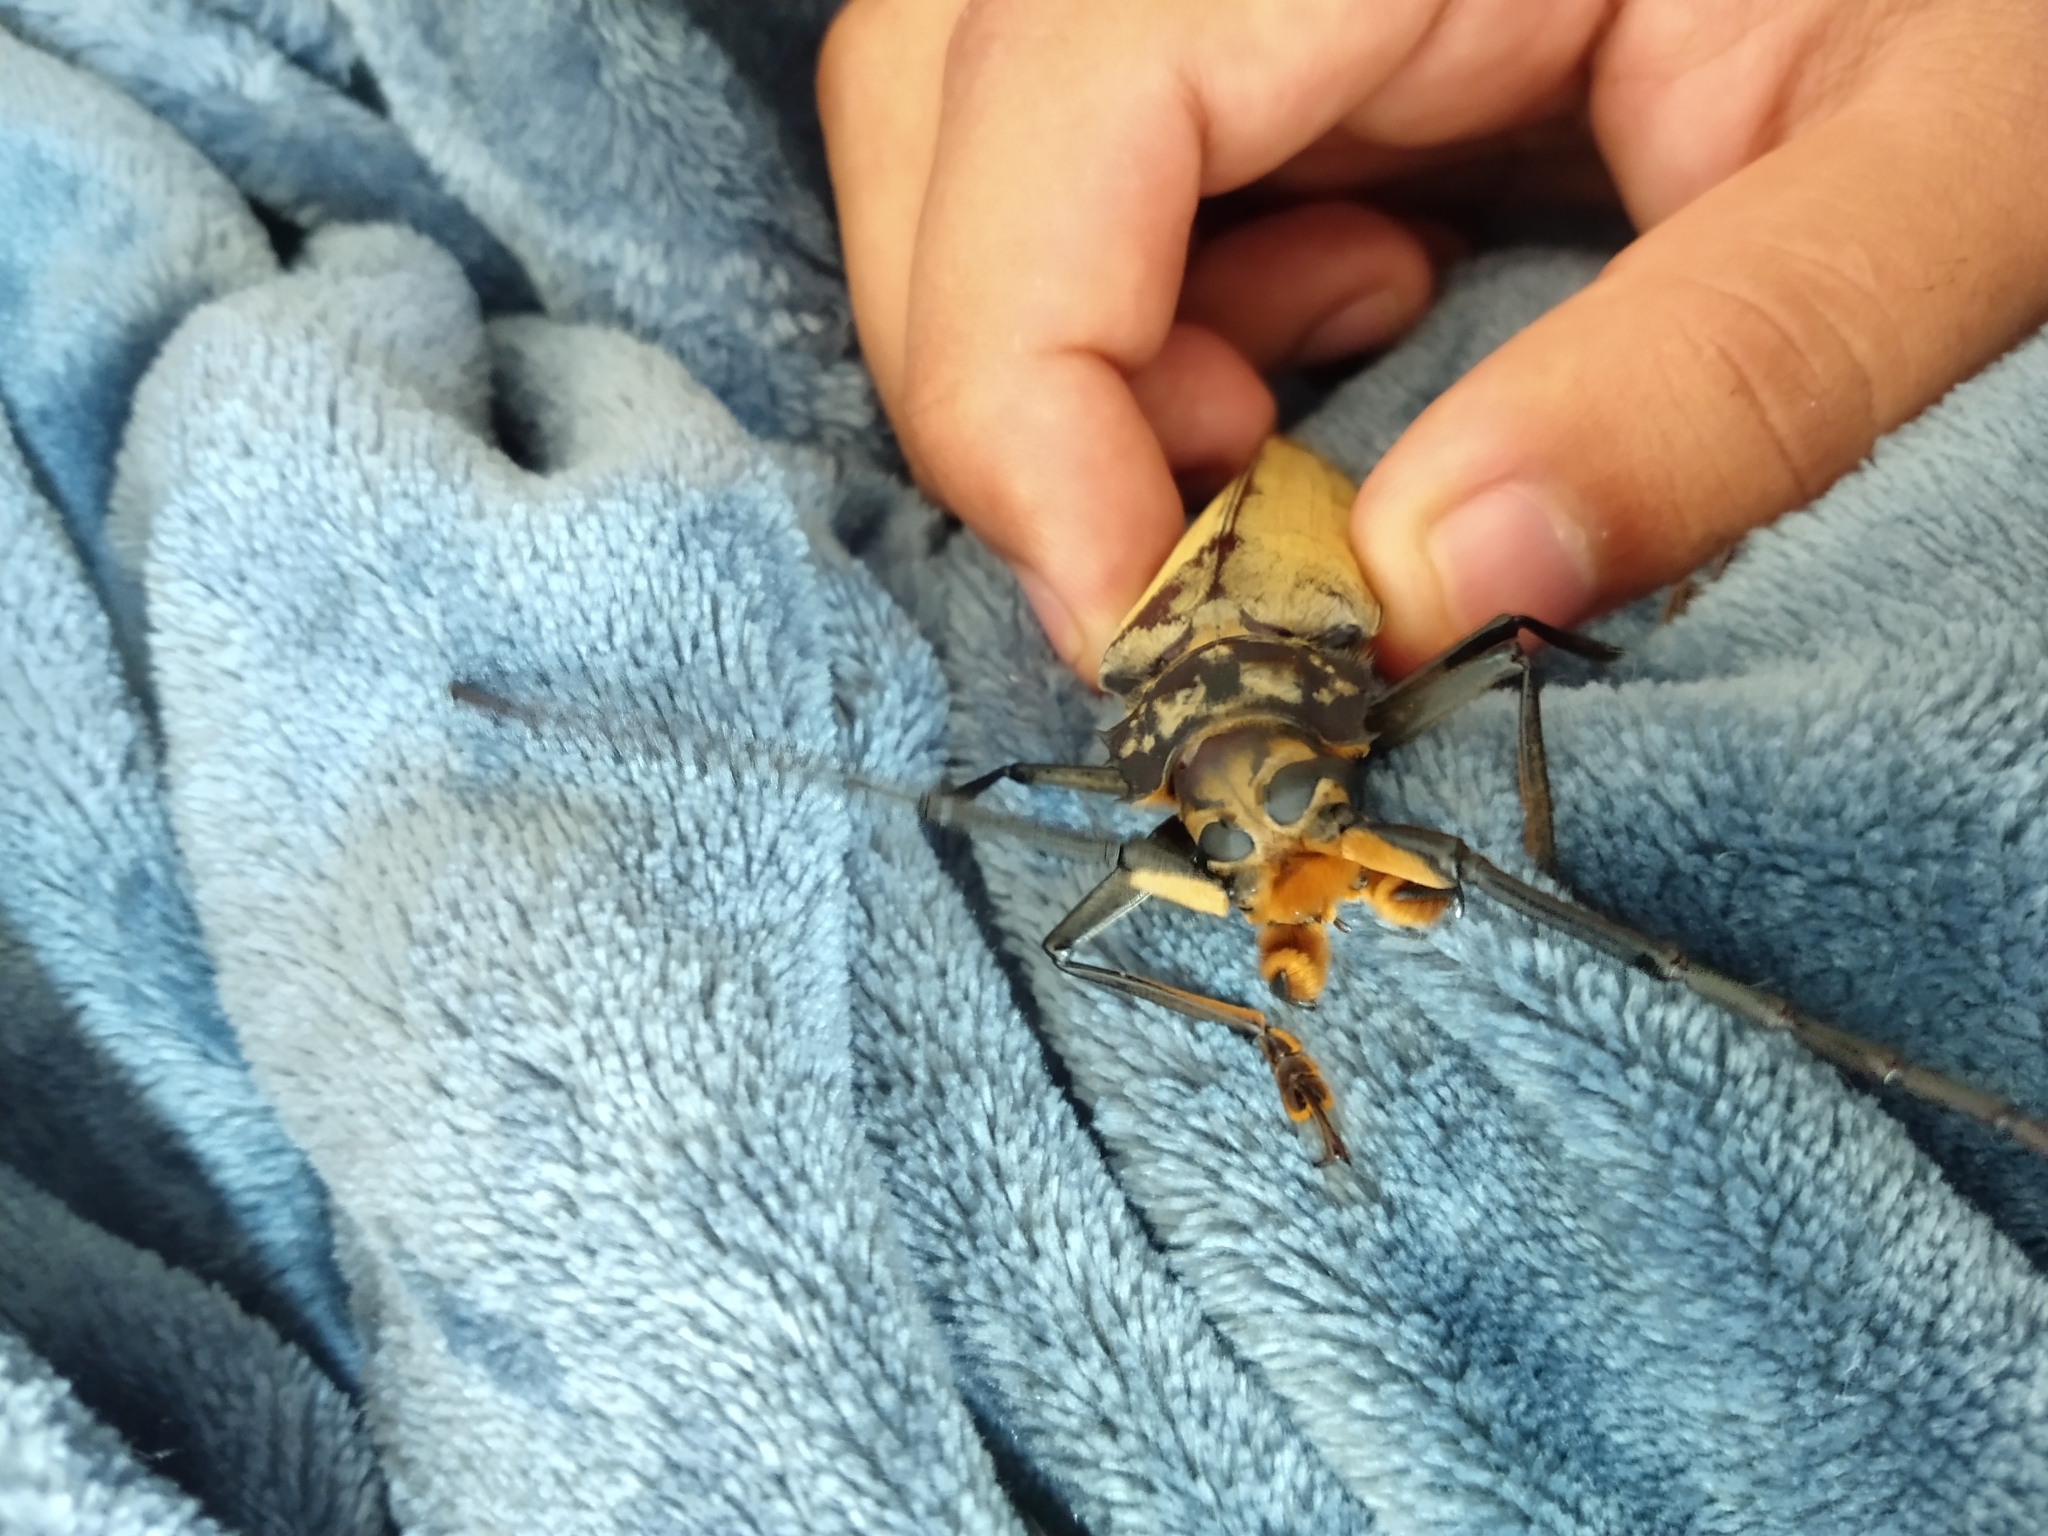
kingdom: Animalia
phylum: Arthropoda
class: Insecta
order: Coleoptera
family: Cerambycidae
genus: Orthomegas
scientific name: Orthomegas folschveilleri
